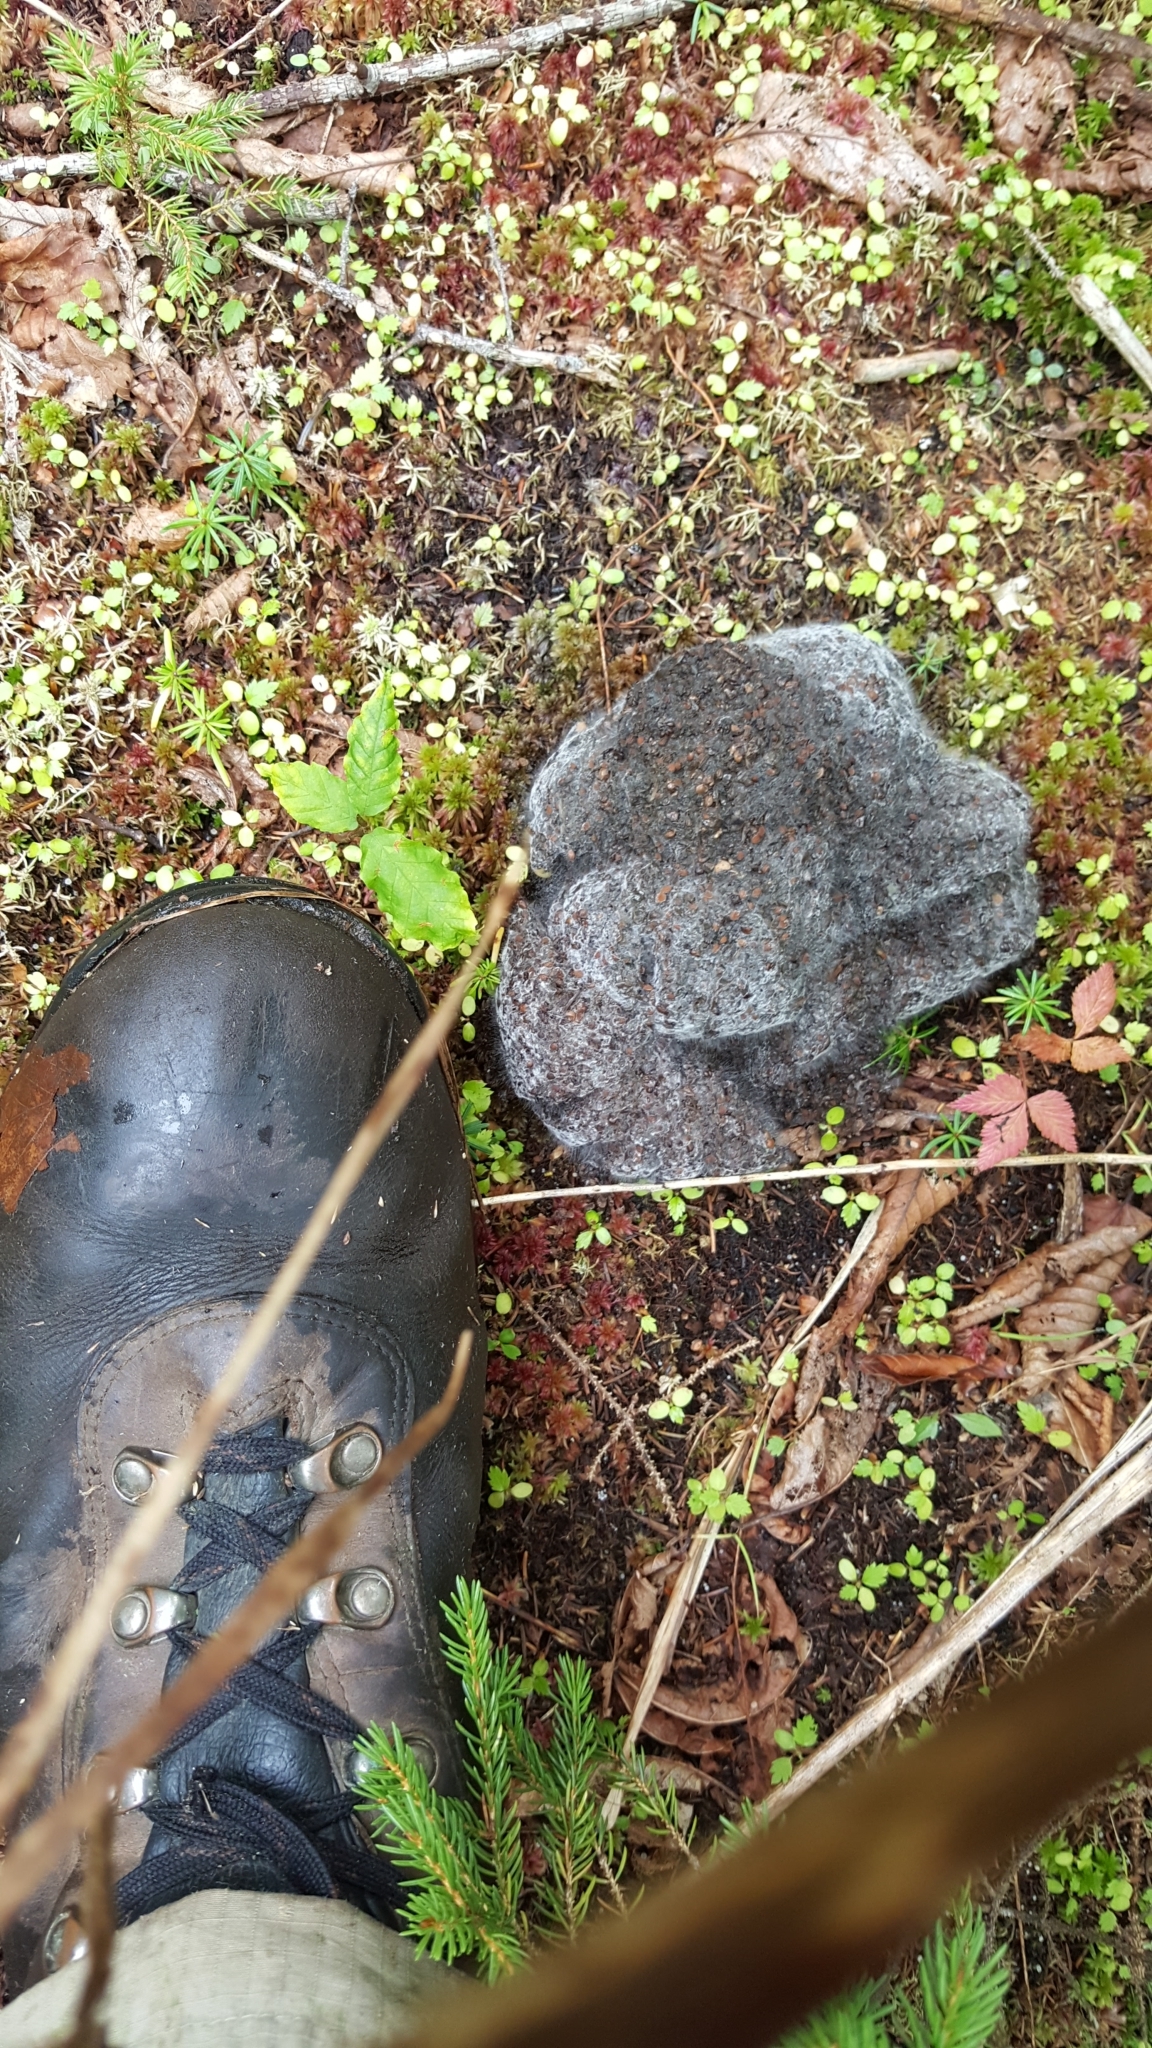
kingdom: Animalia
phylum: Chordata
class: Mammalia
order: Carnivora
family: Ursidae
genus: Ursus
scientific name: Ursus americanus
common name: American black bear
